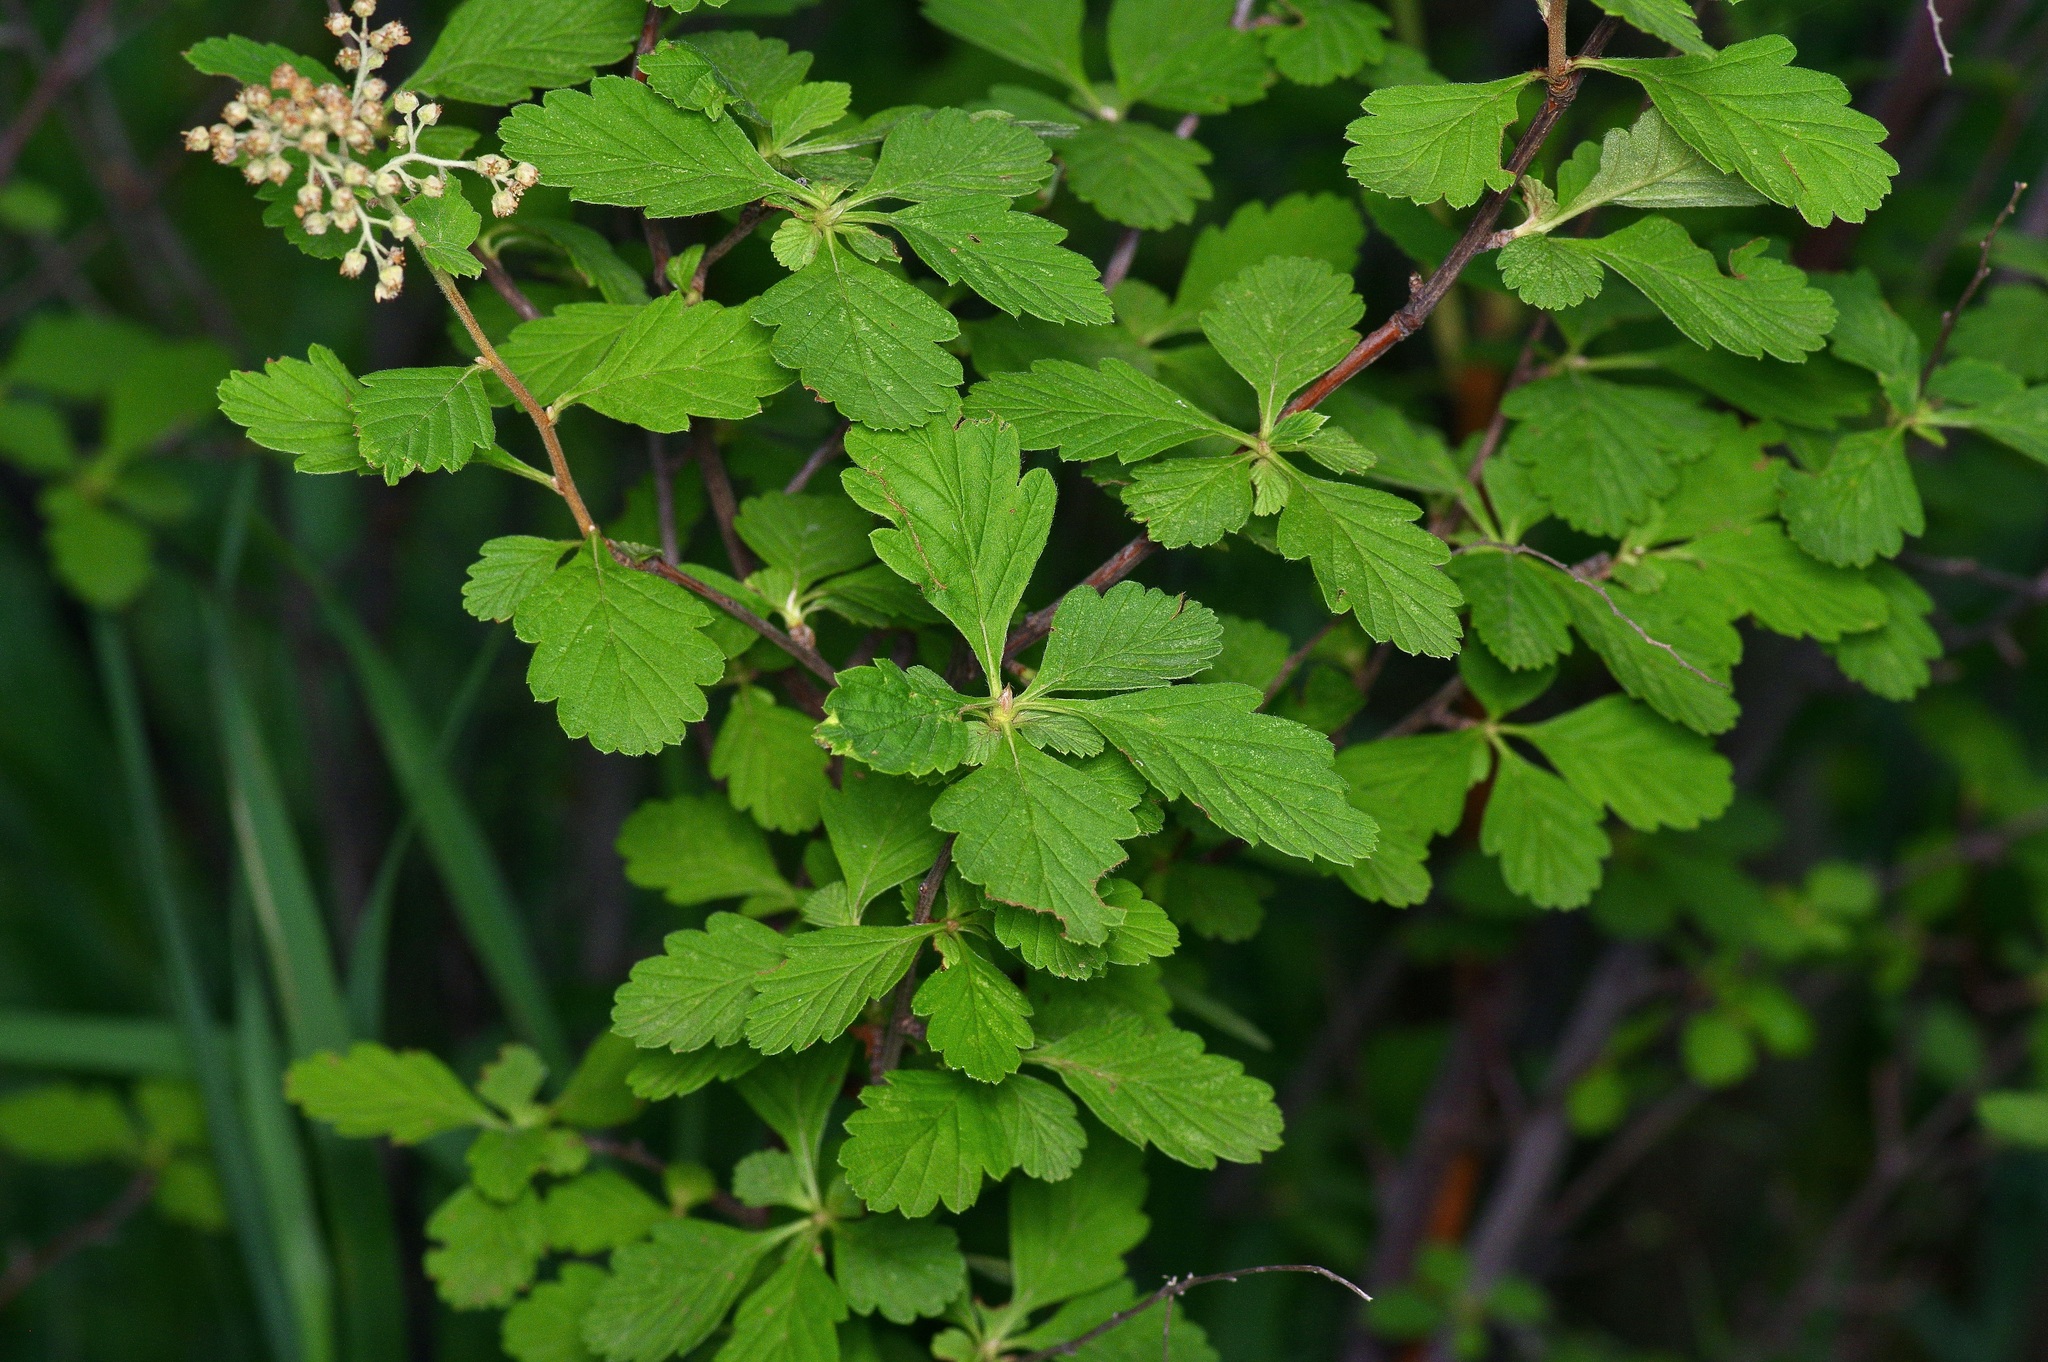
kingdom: Plantae
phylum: Tracheophyta
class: Magnoliopsida
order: Rosales
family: Rosaceae
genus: Holodiscus
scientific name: Holodiscus discolor
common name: Oceanspray
